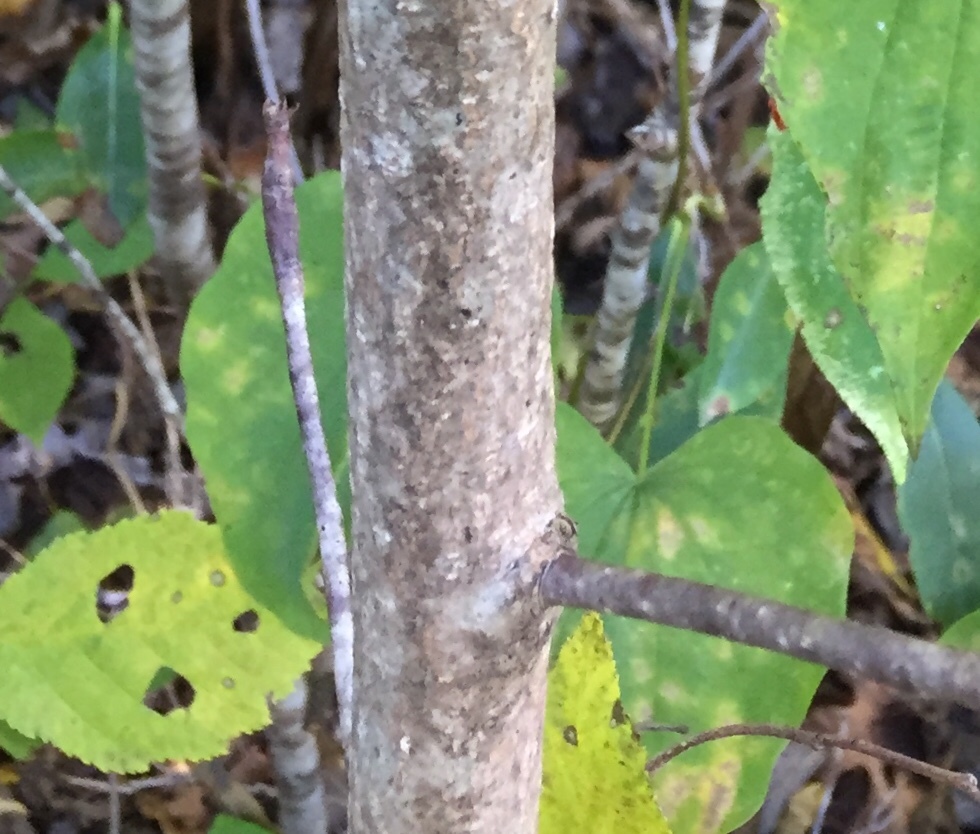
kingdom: Plantae
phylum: Tracheophyta
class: Magnoliopsida
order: Magnoliales
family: Magnoliaceae
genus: Magnolia
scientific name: Magnolia fraseri
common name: Fraser's magnolia
